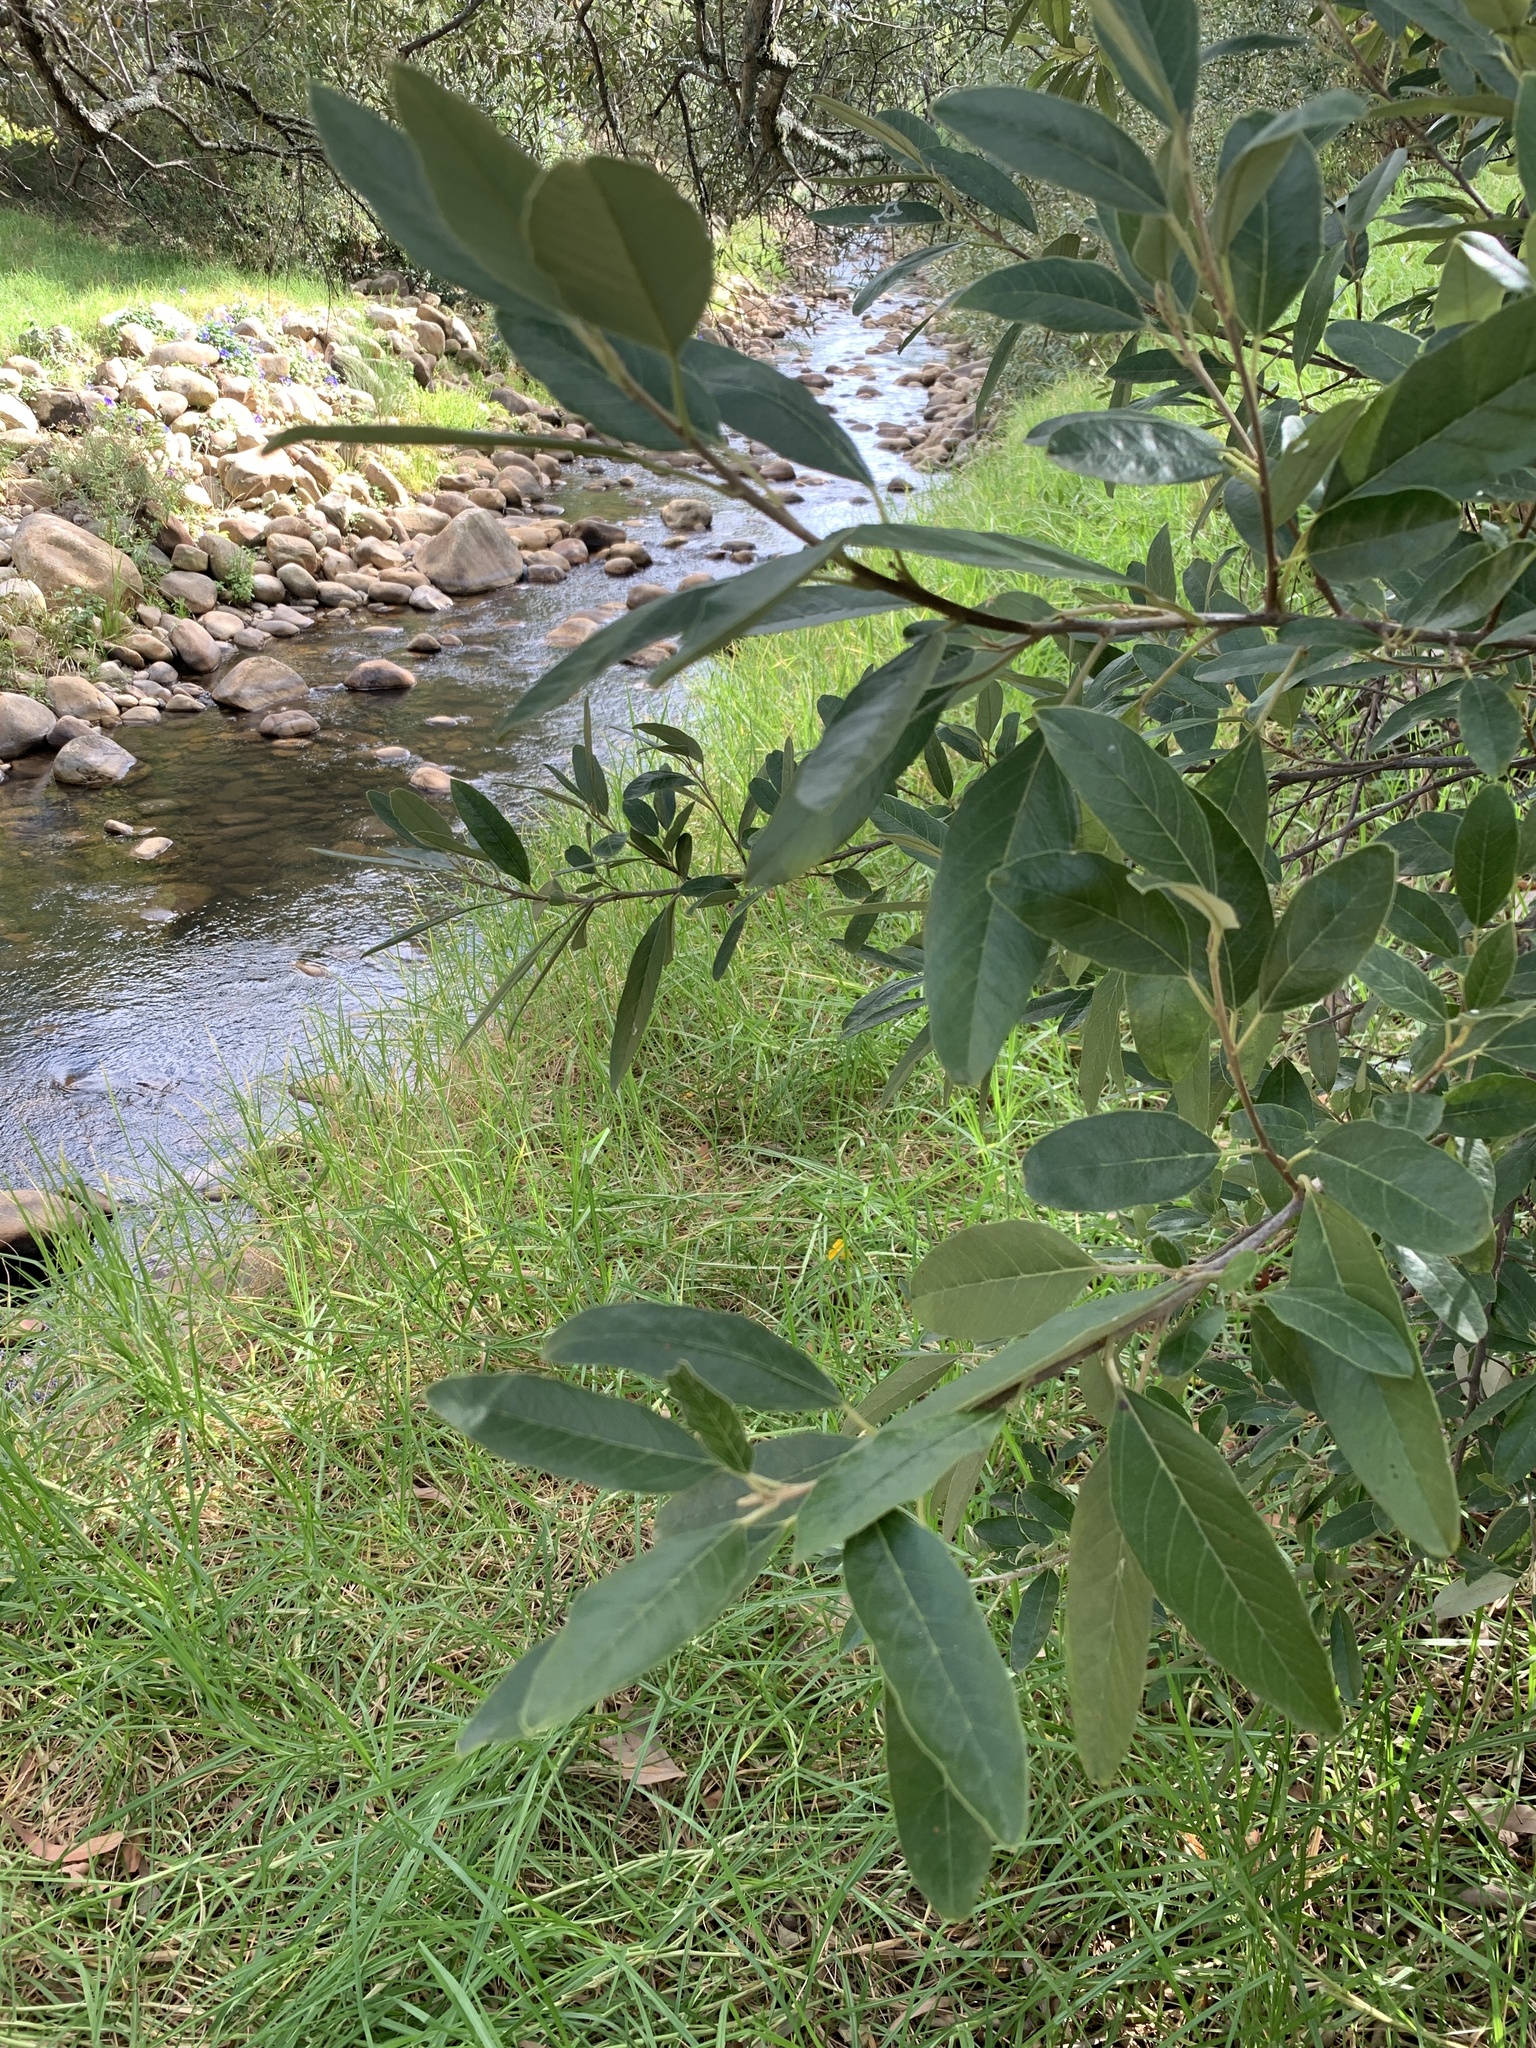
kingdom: Plantae
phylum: Tracheophyta
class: Magnoliopsida
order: Malpighiales
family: Achariaceae
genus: Kiggelaria
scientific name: Kiggelaria africana
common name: Wild peach
